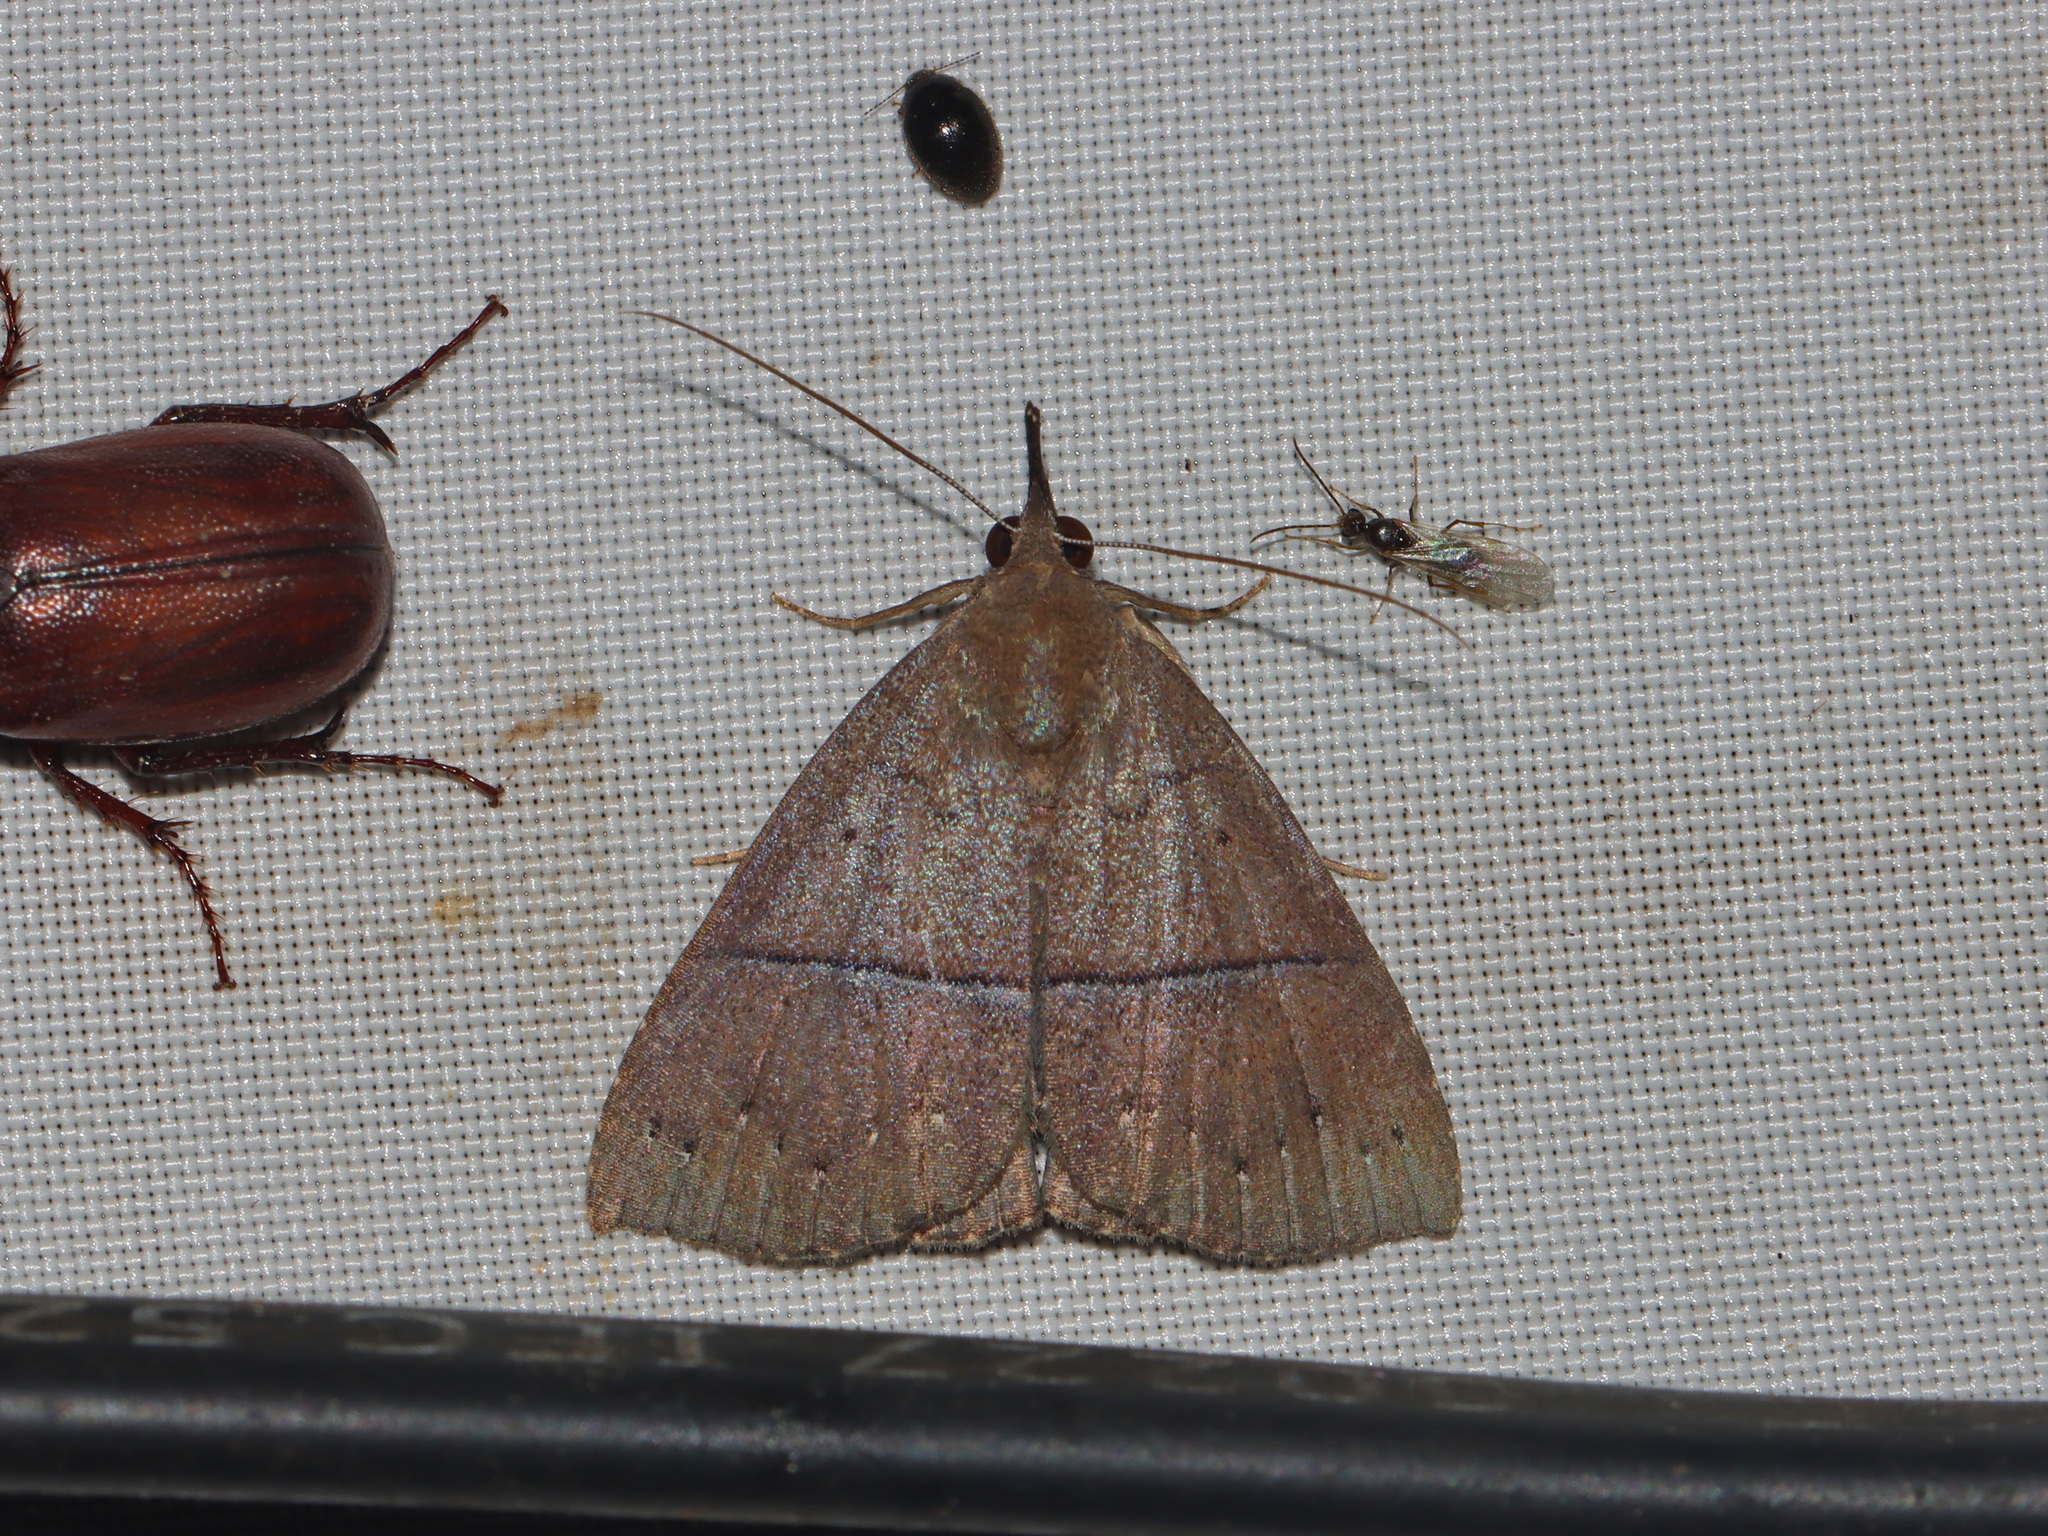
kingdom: Animalia
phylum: Arthropoda
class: Insecta
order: Lepidoptera
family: Erebidae
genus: Harita
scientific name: Harita rectilinea
